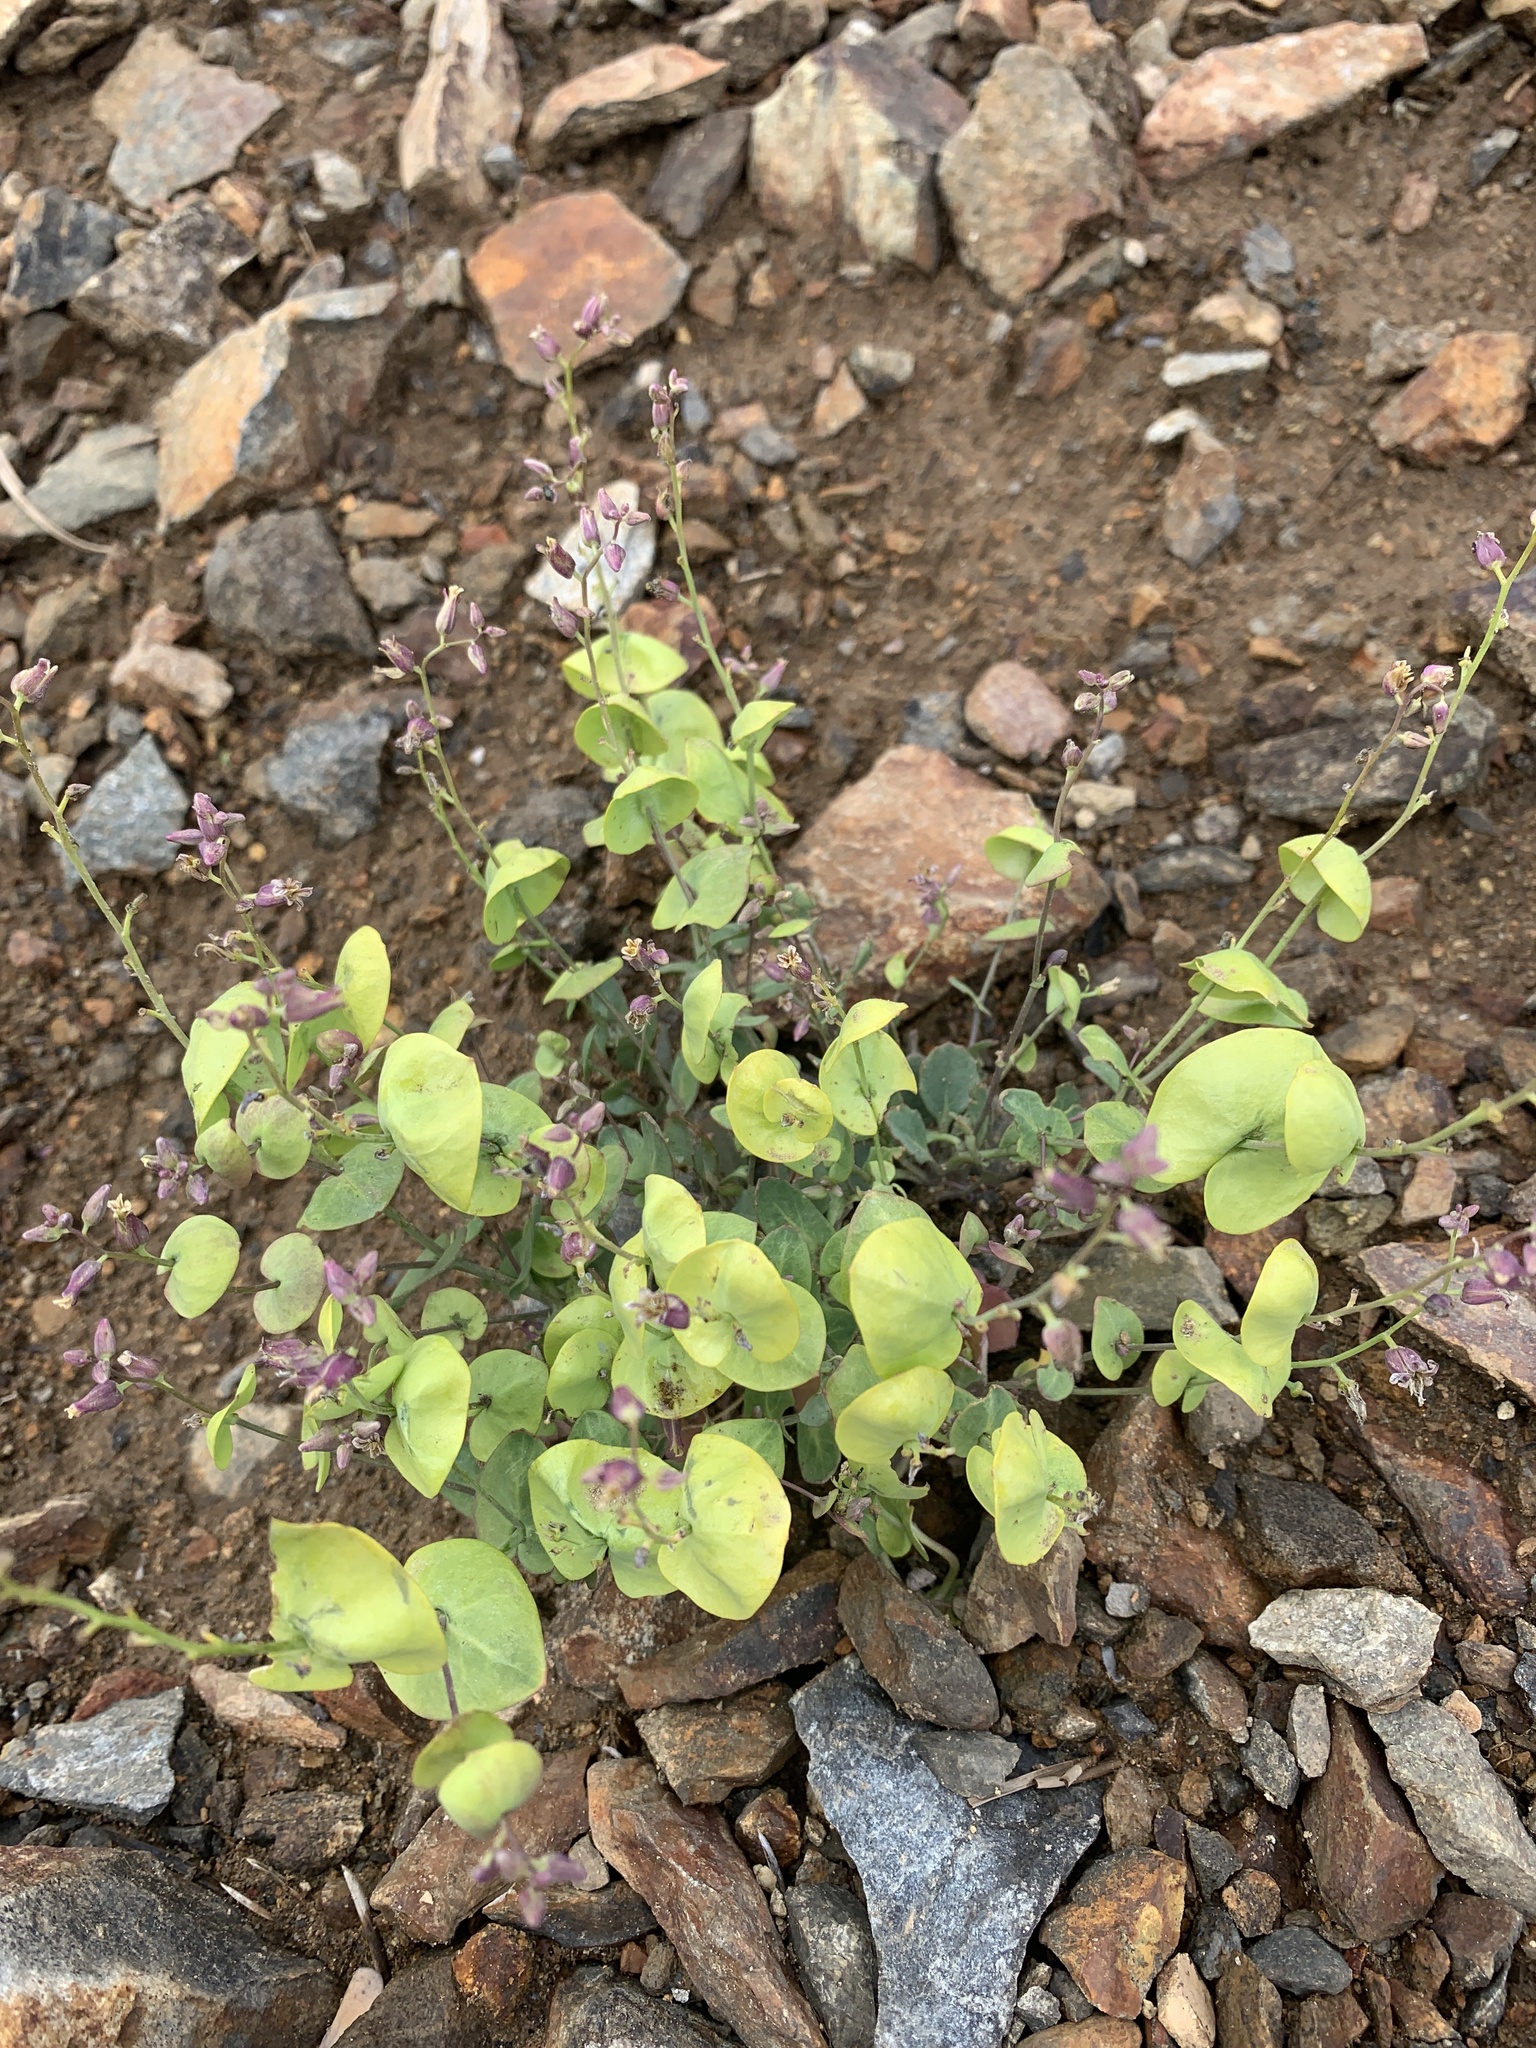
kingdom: Plantae
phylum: Tracheophyta
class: Magnoliopsida
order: Brassicales
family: Brassicaceae
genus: Streptanthus
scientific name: Streptanthus tortuosus
